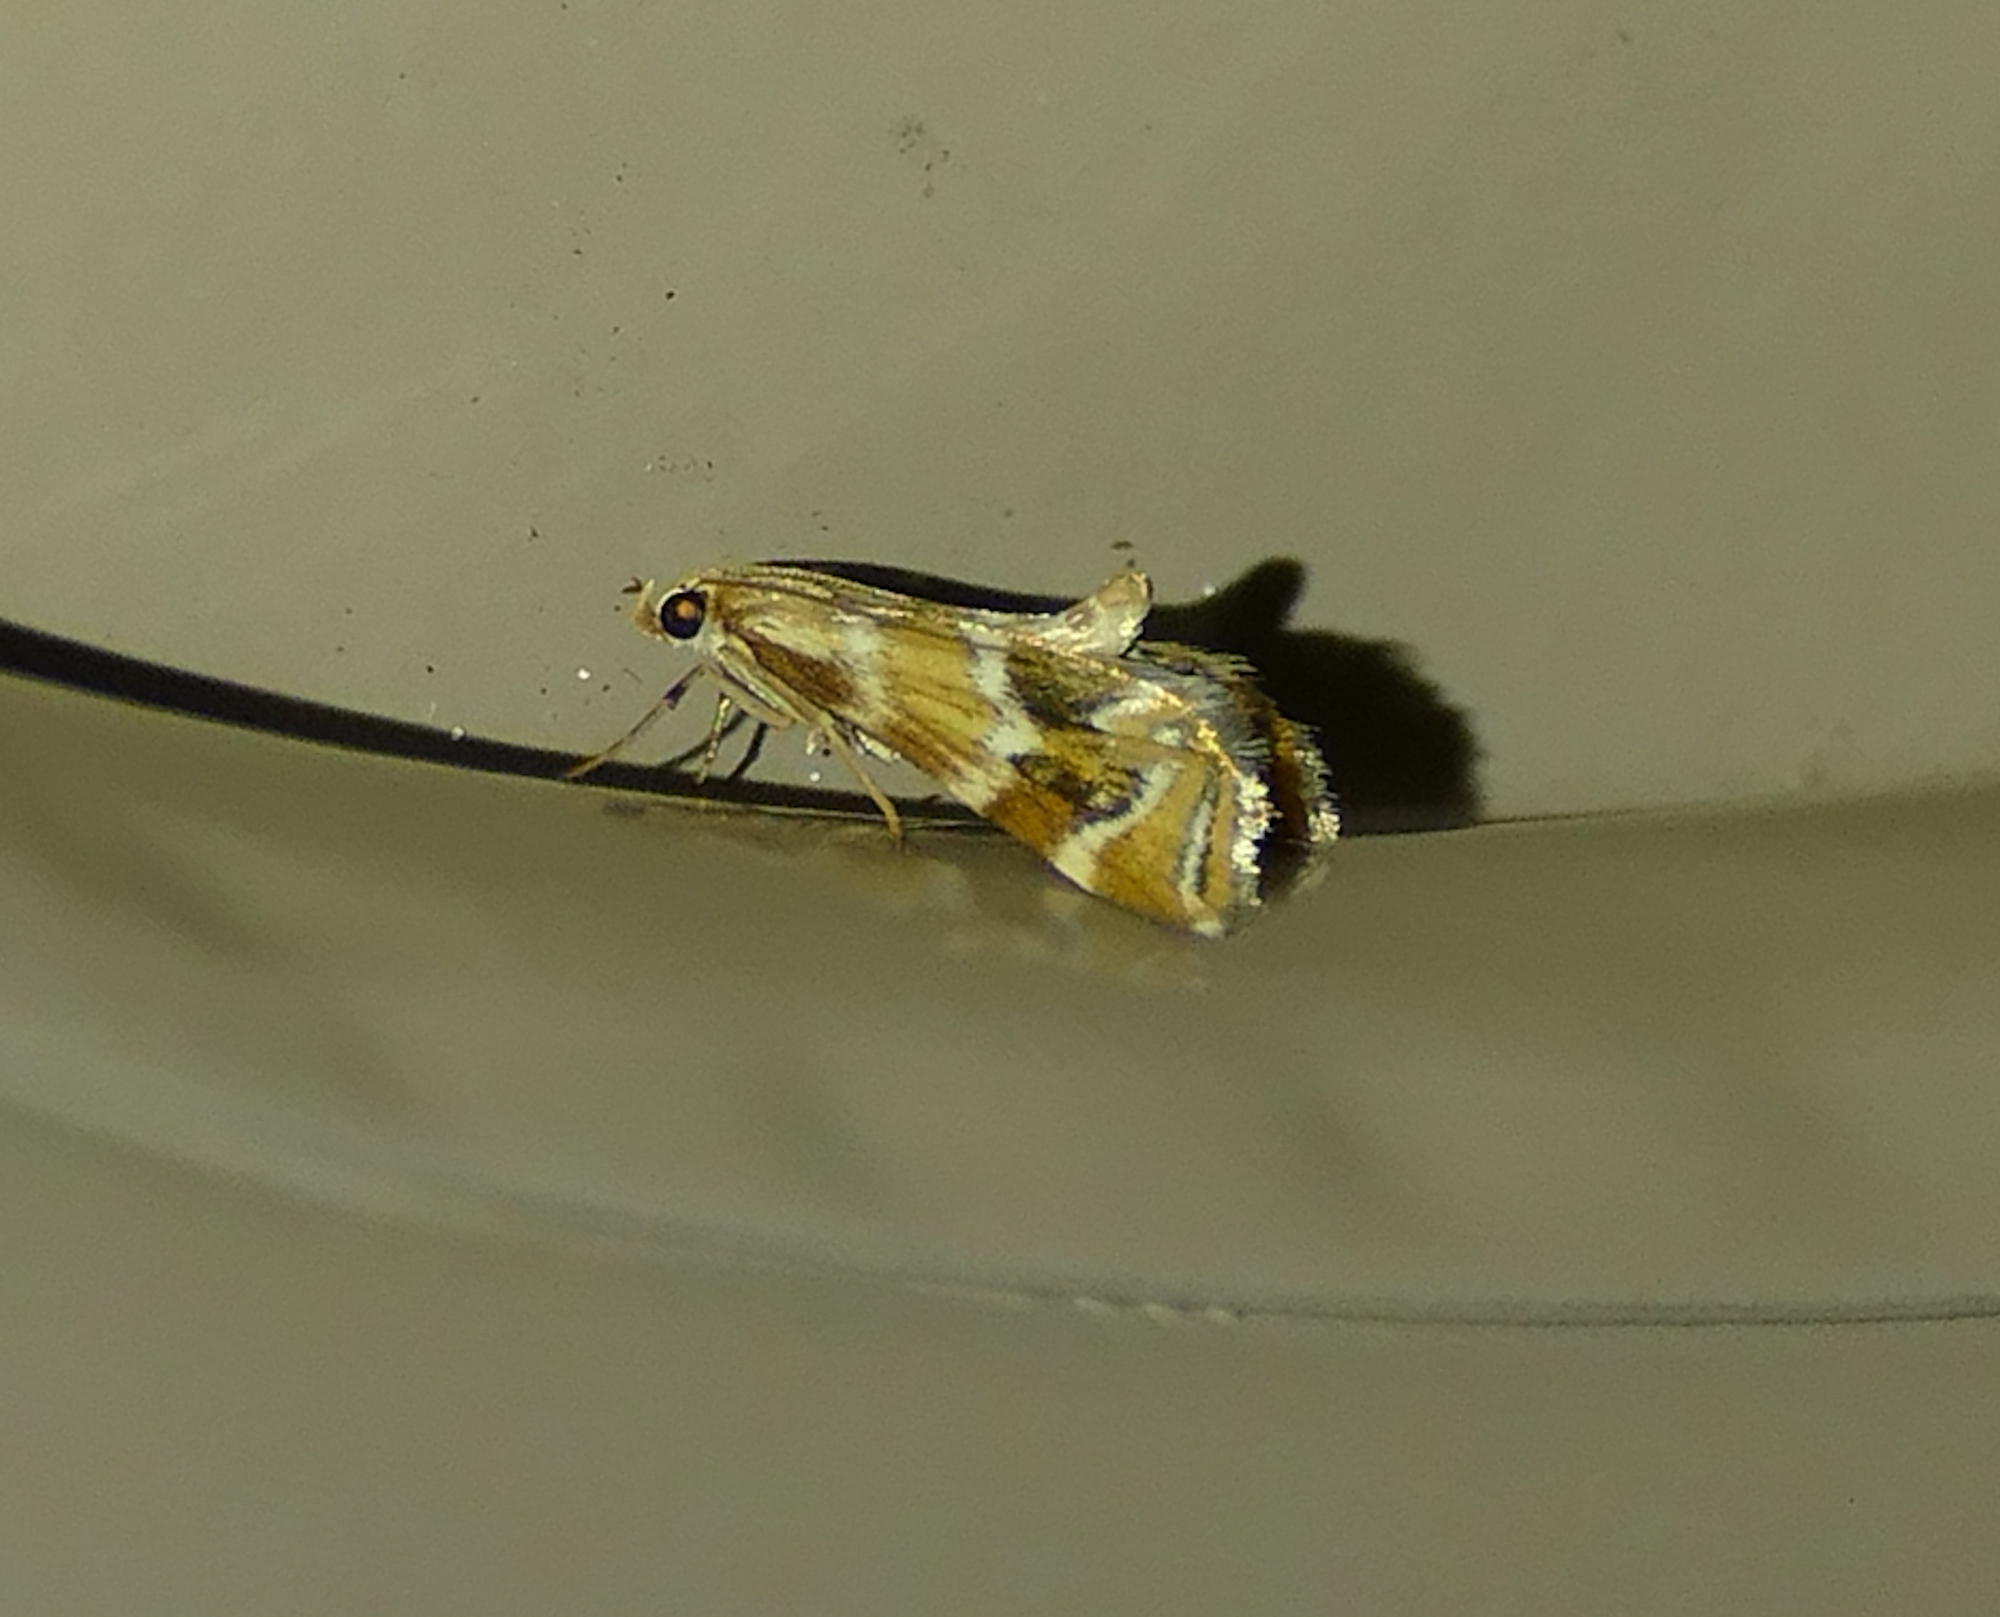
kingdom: Animalia
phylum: Arthropoda
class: Insecta
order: Lepidoptera
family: Crambidae
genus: Petrophila
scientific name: Petrophila avernalis
